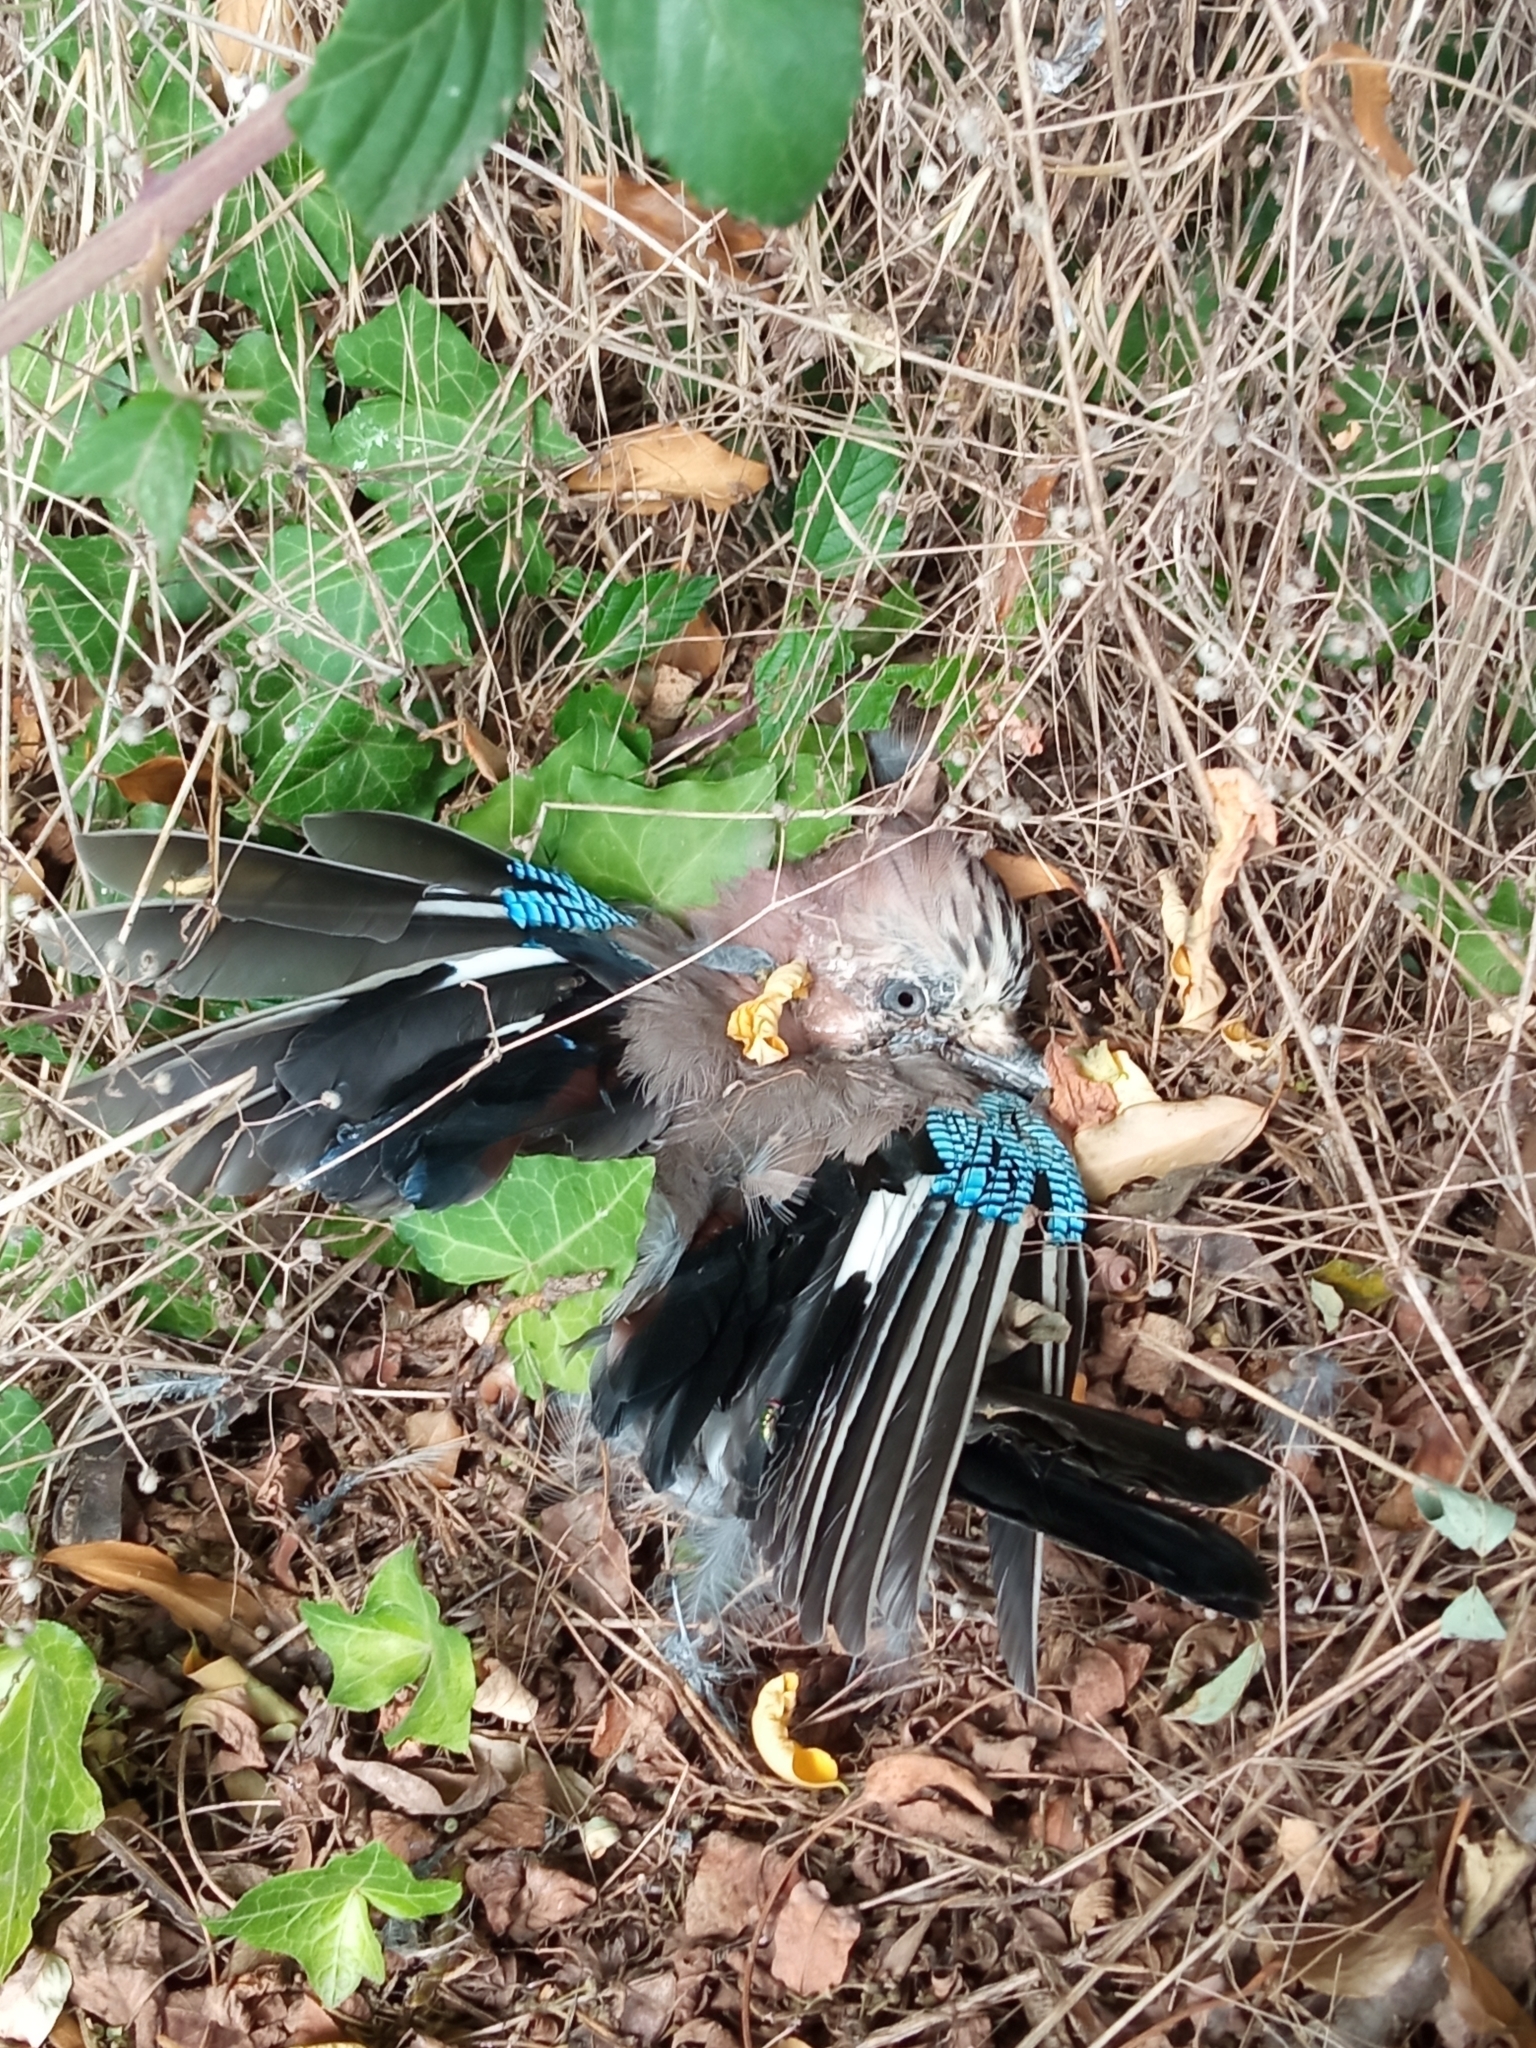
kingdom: Animalia
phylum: Chordata
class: Aves
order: Passeriformes
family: Corvidae
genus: Garrulus
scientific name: Garrulus glandarius
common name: Eurasian jay
